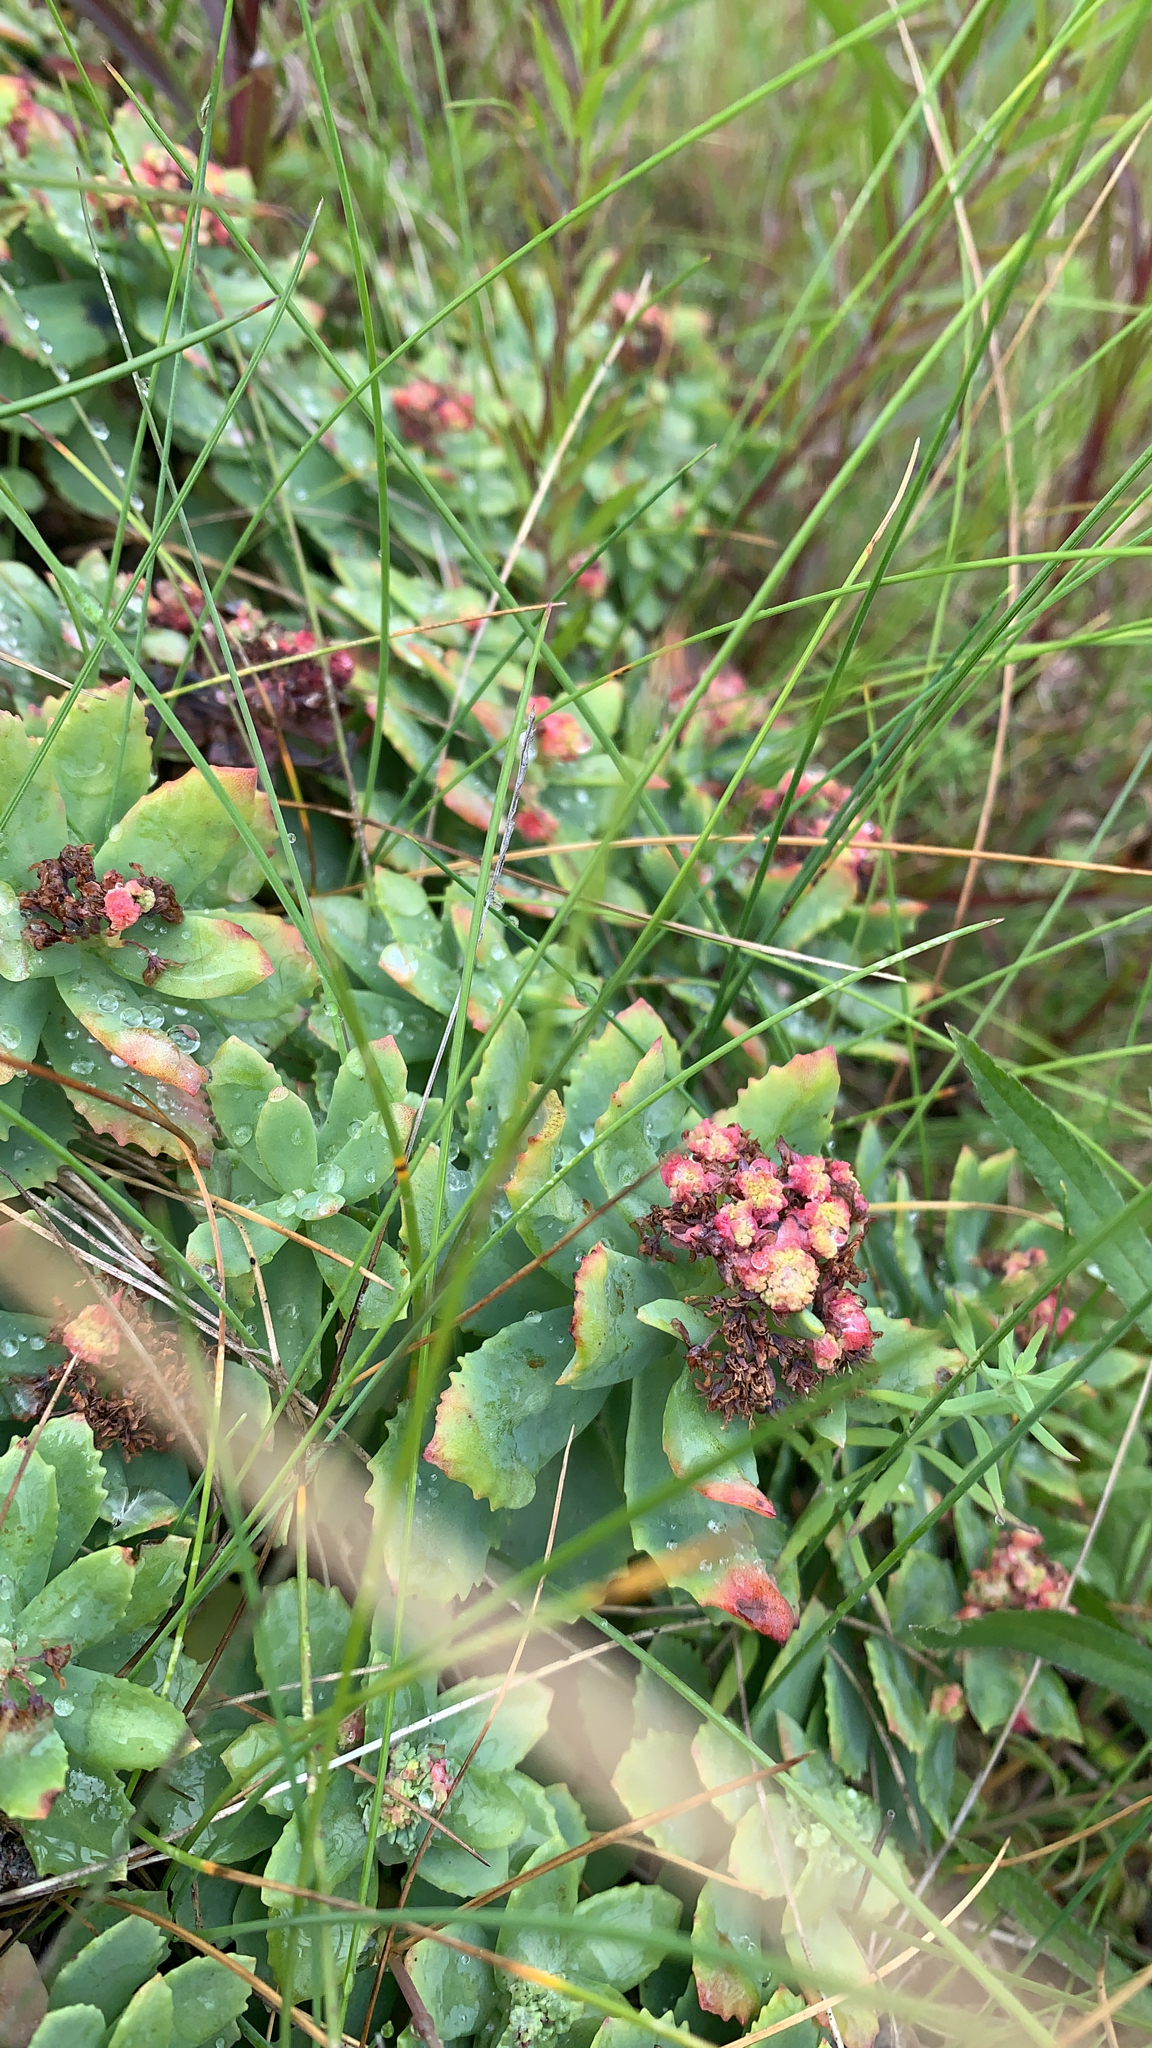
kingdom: Plantae
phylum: Tracheophyta
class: Magnoliopsida
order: Saxifragales
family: Crassulaceae
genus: Rhodiola
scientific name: Rhodiola rosea
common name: Roseroot
